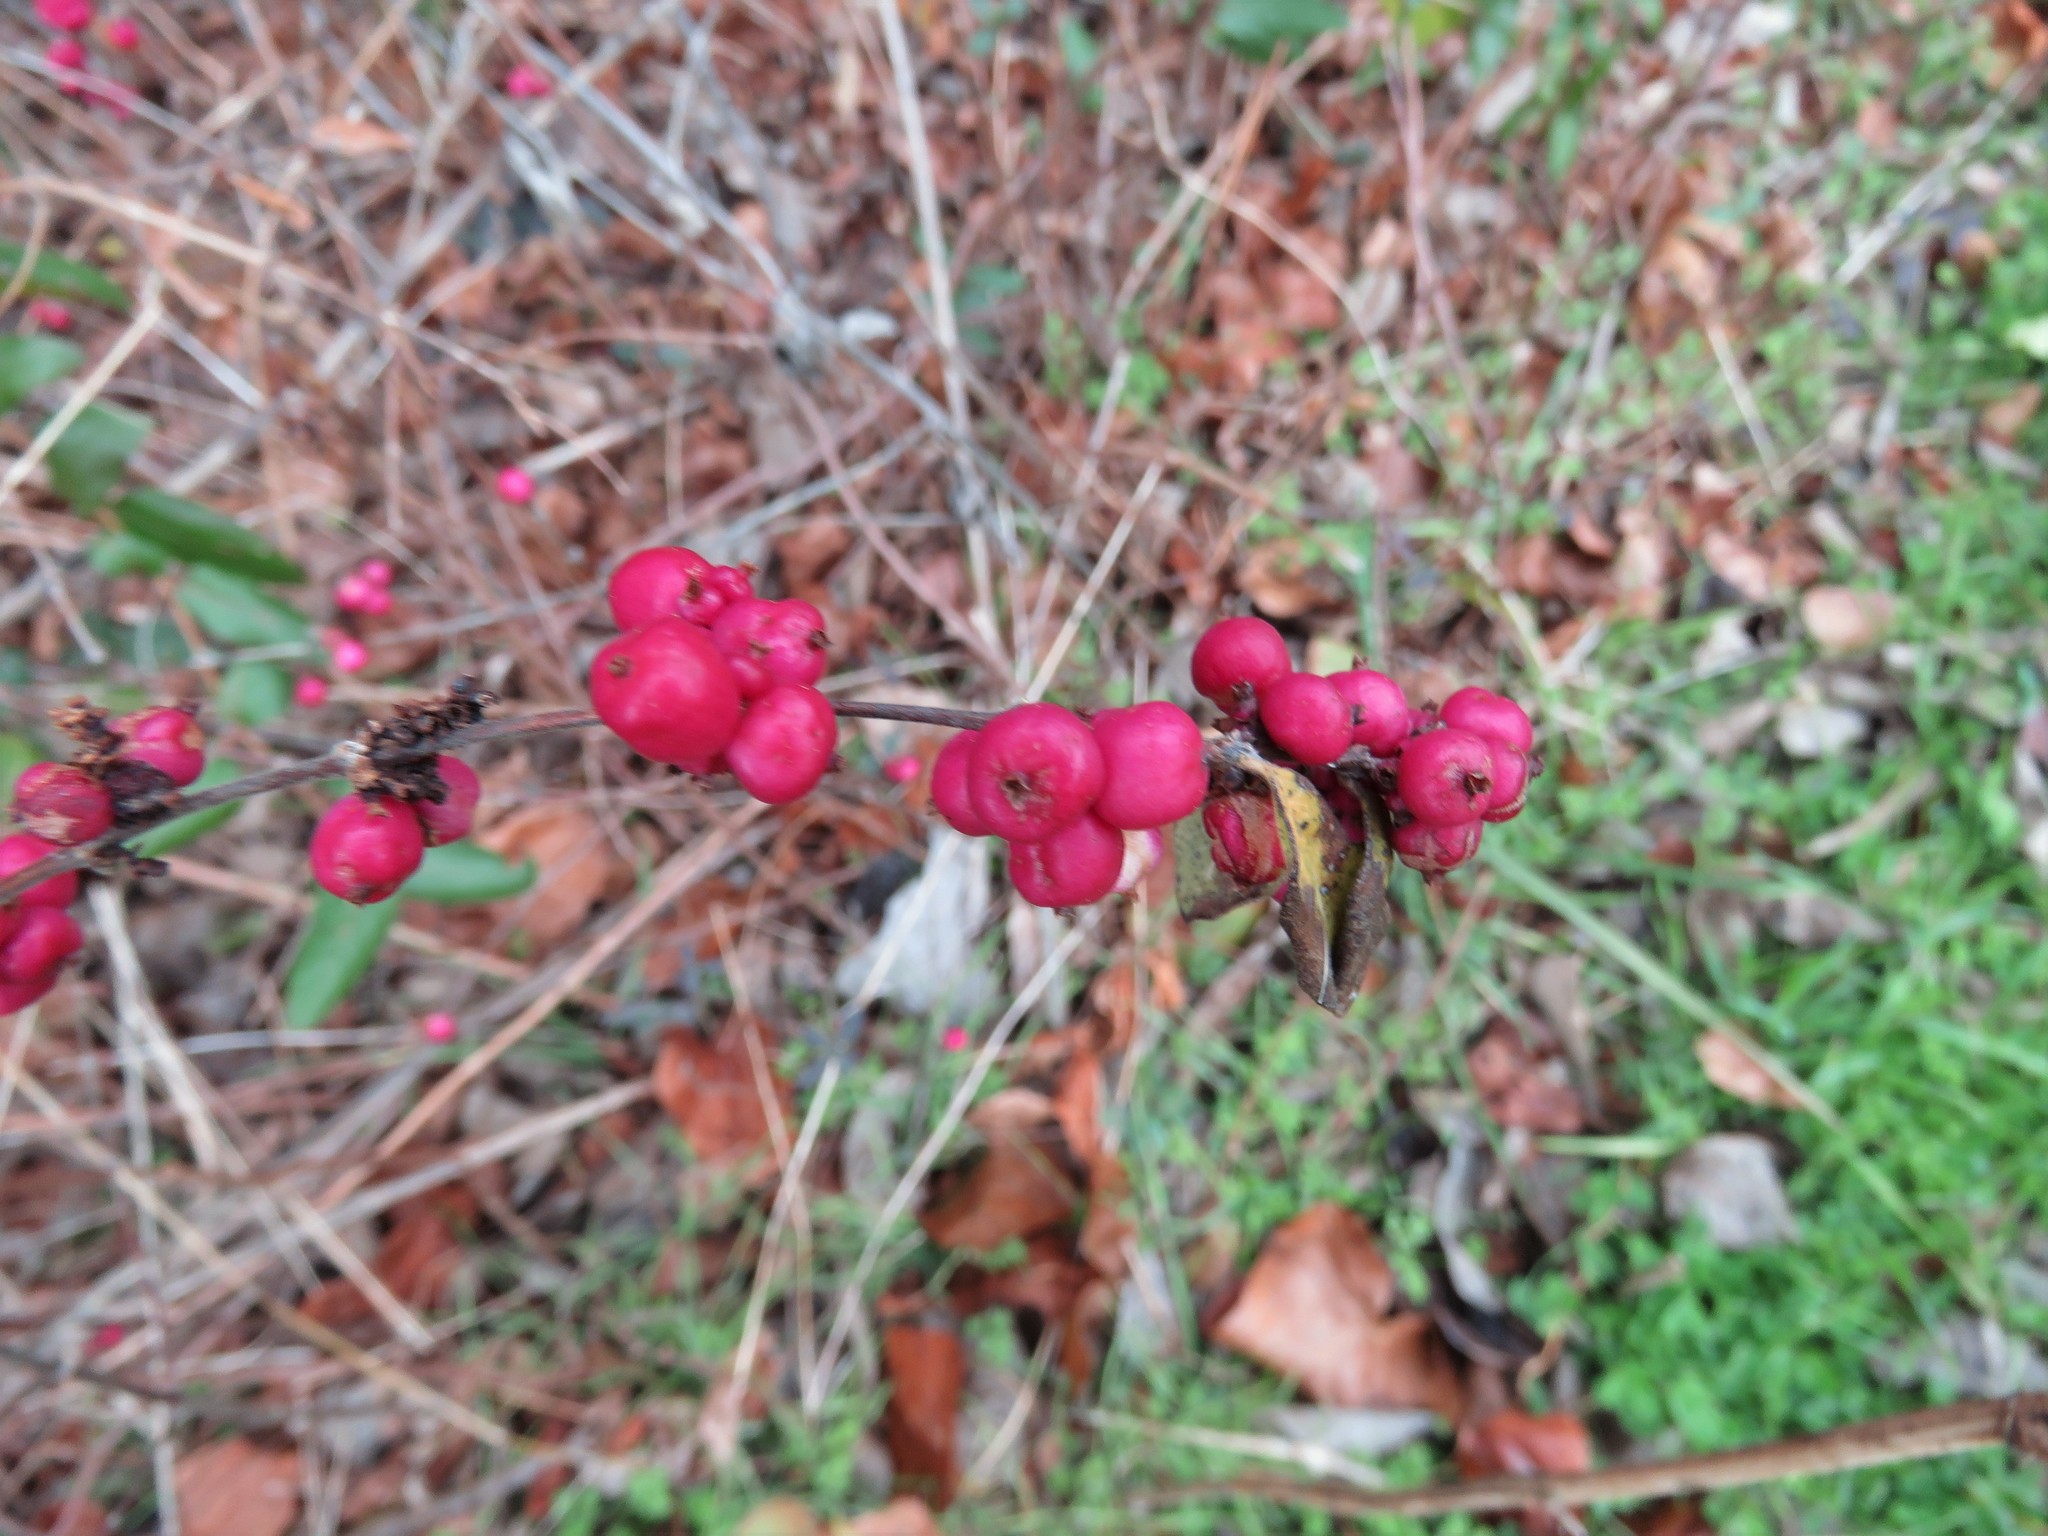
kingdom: Plantae
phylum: Tracheophyta
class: Magnoliopsida
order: Dipsacales
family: Caprifoliaceae
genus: Symphoricarpos
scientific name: Symphoricarpos orbiculatus
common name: Coralberry
